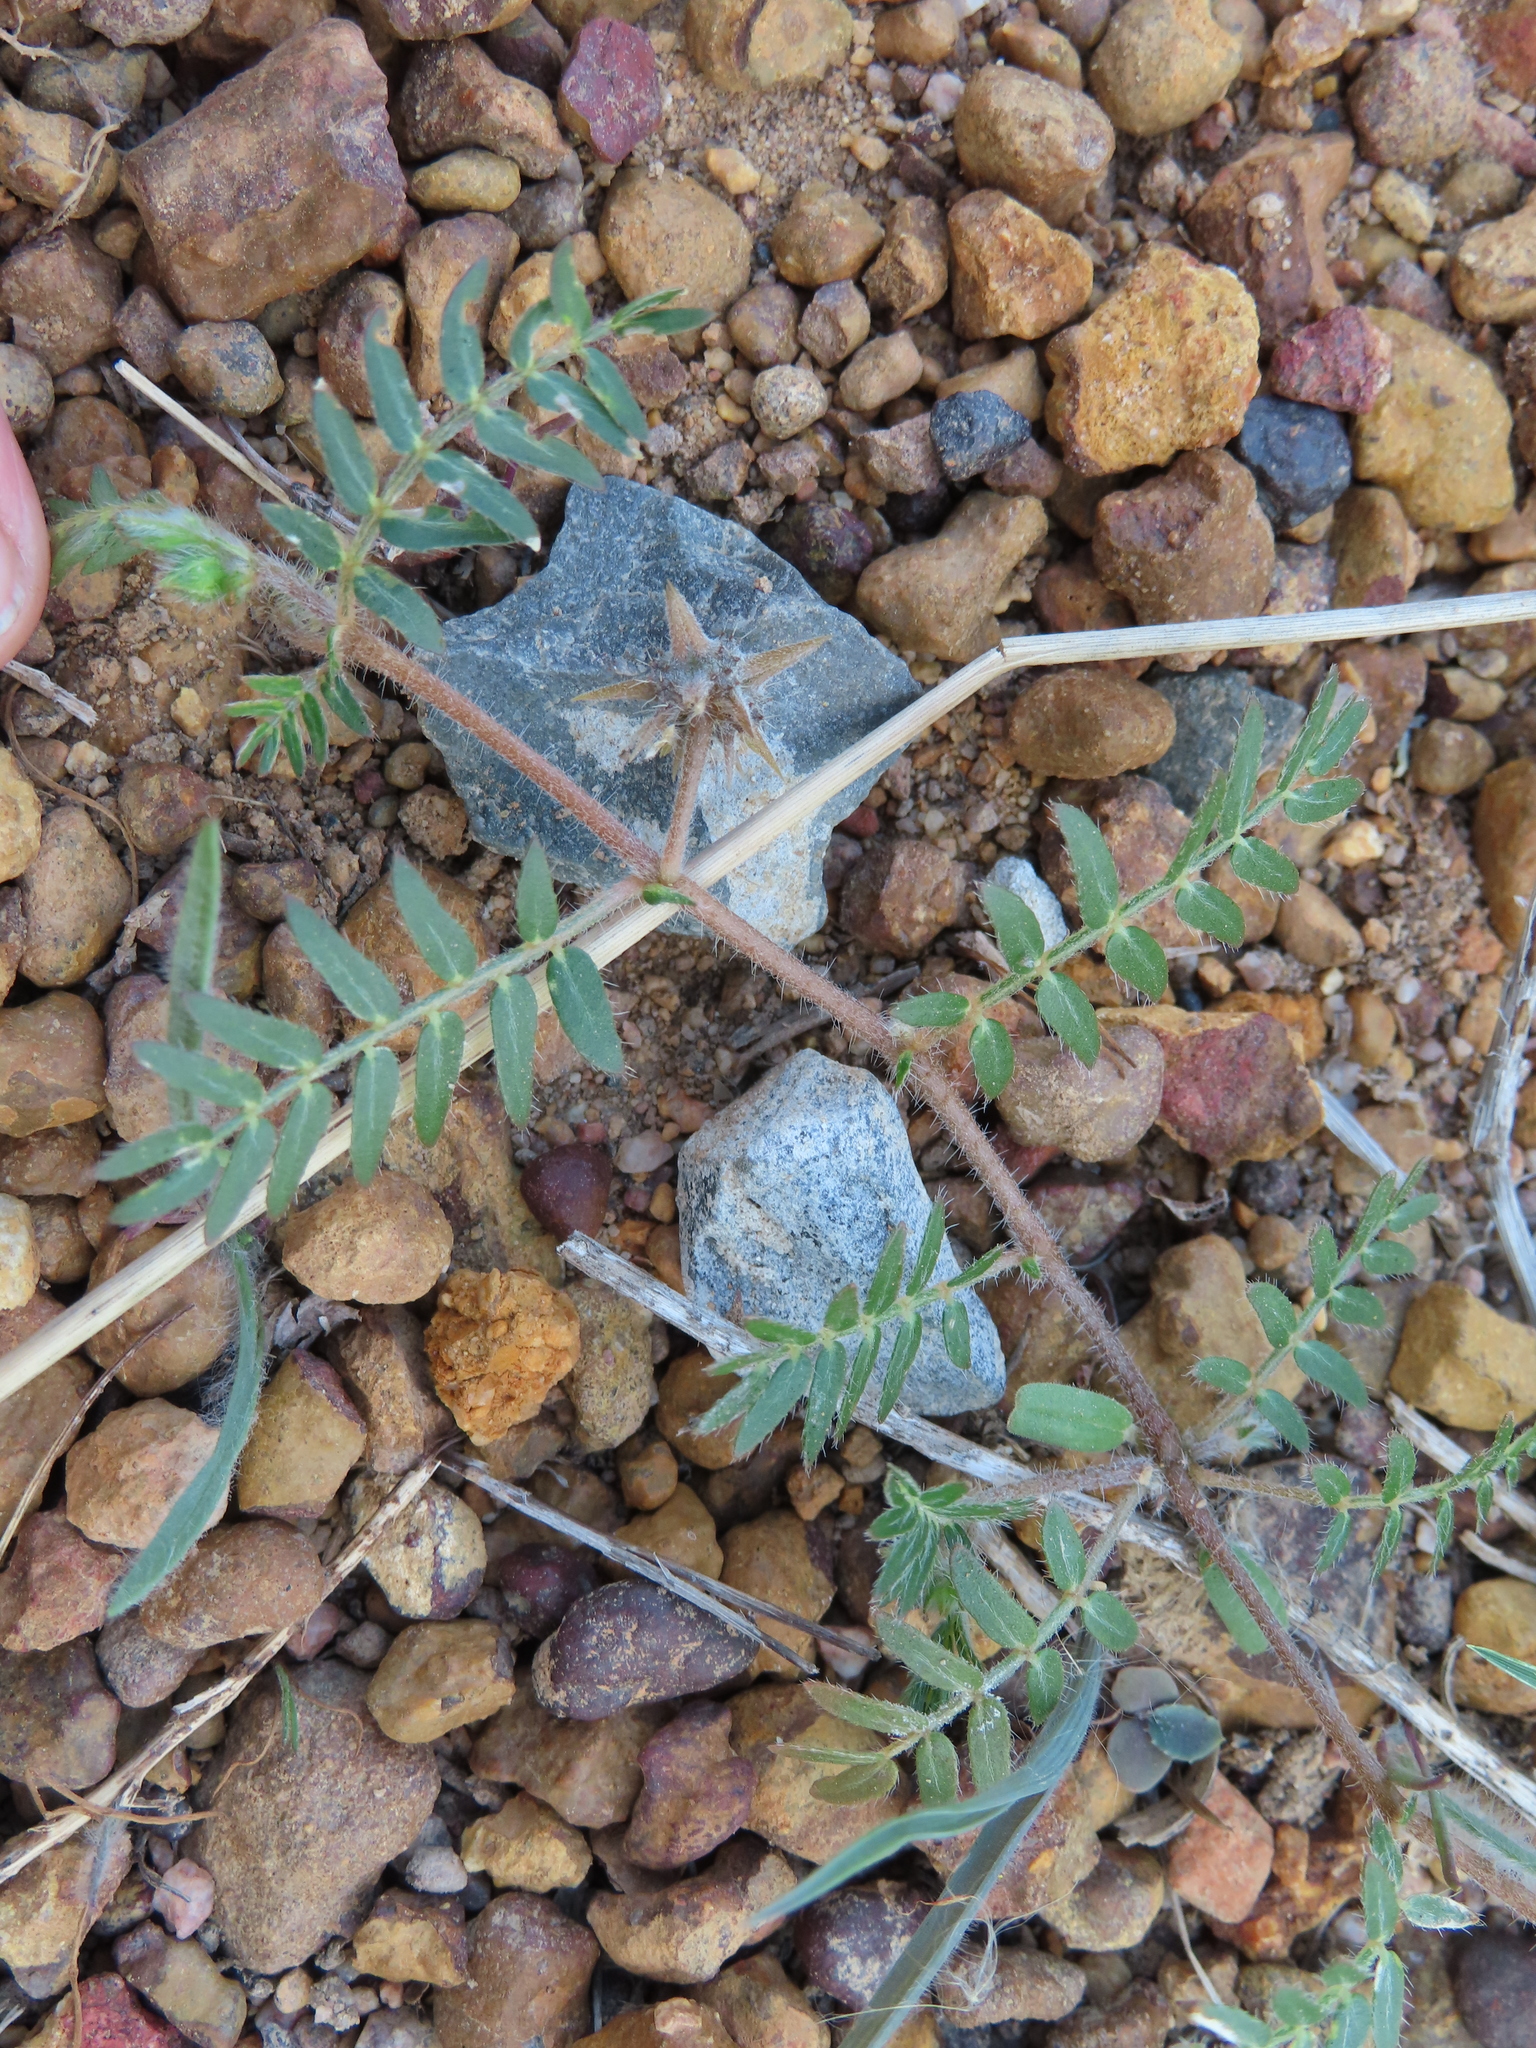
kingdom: Plantae
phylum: Tracheophyta
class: Magnoliopsida
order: Zygophyllales
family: Zygophyllaceae
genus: Tribulus
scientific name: Tribulus terrestris
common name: Puncturevine
